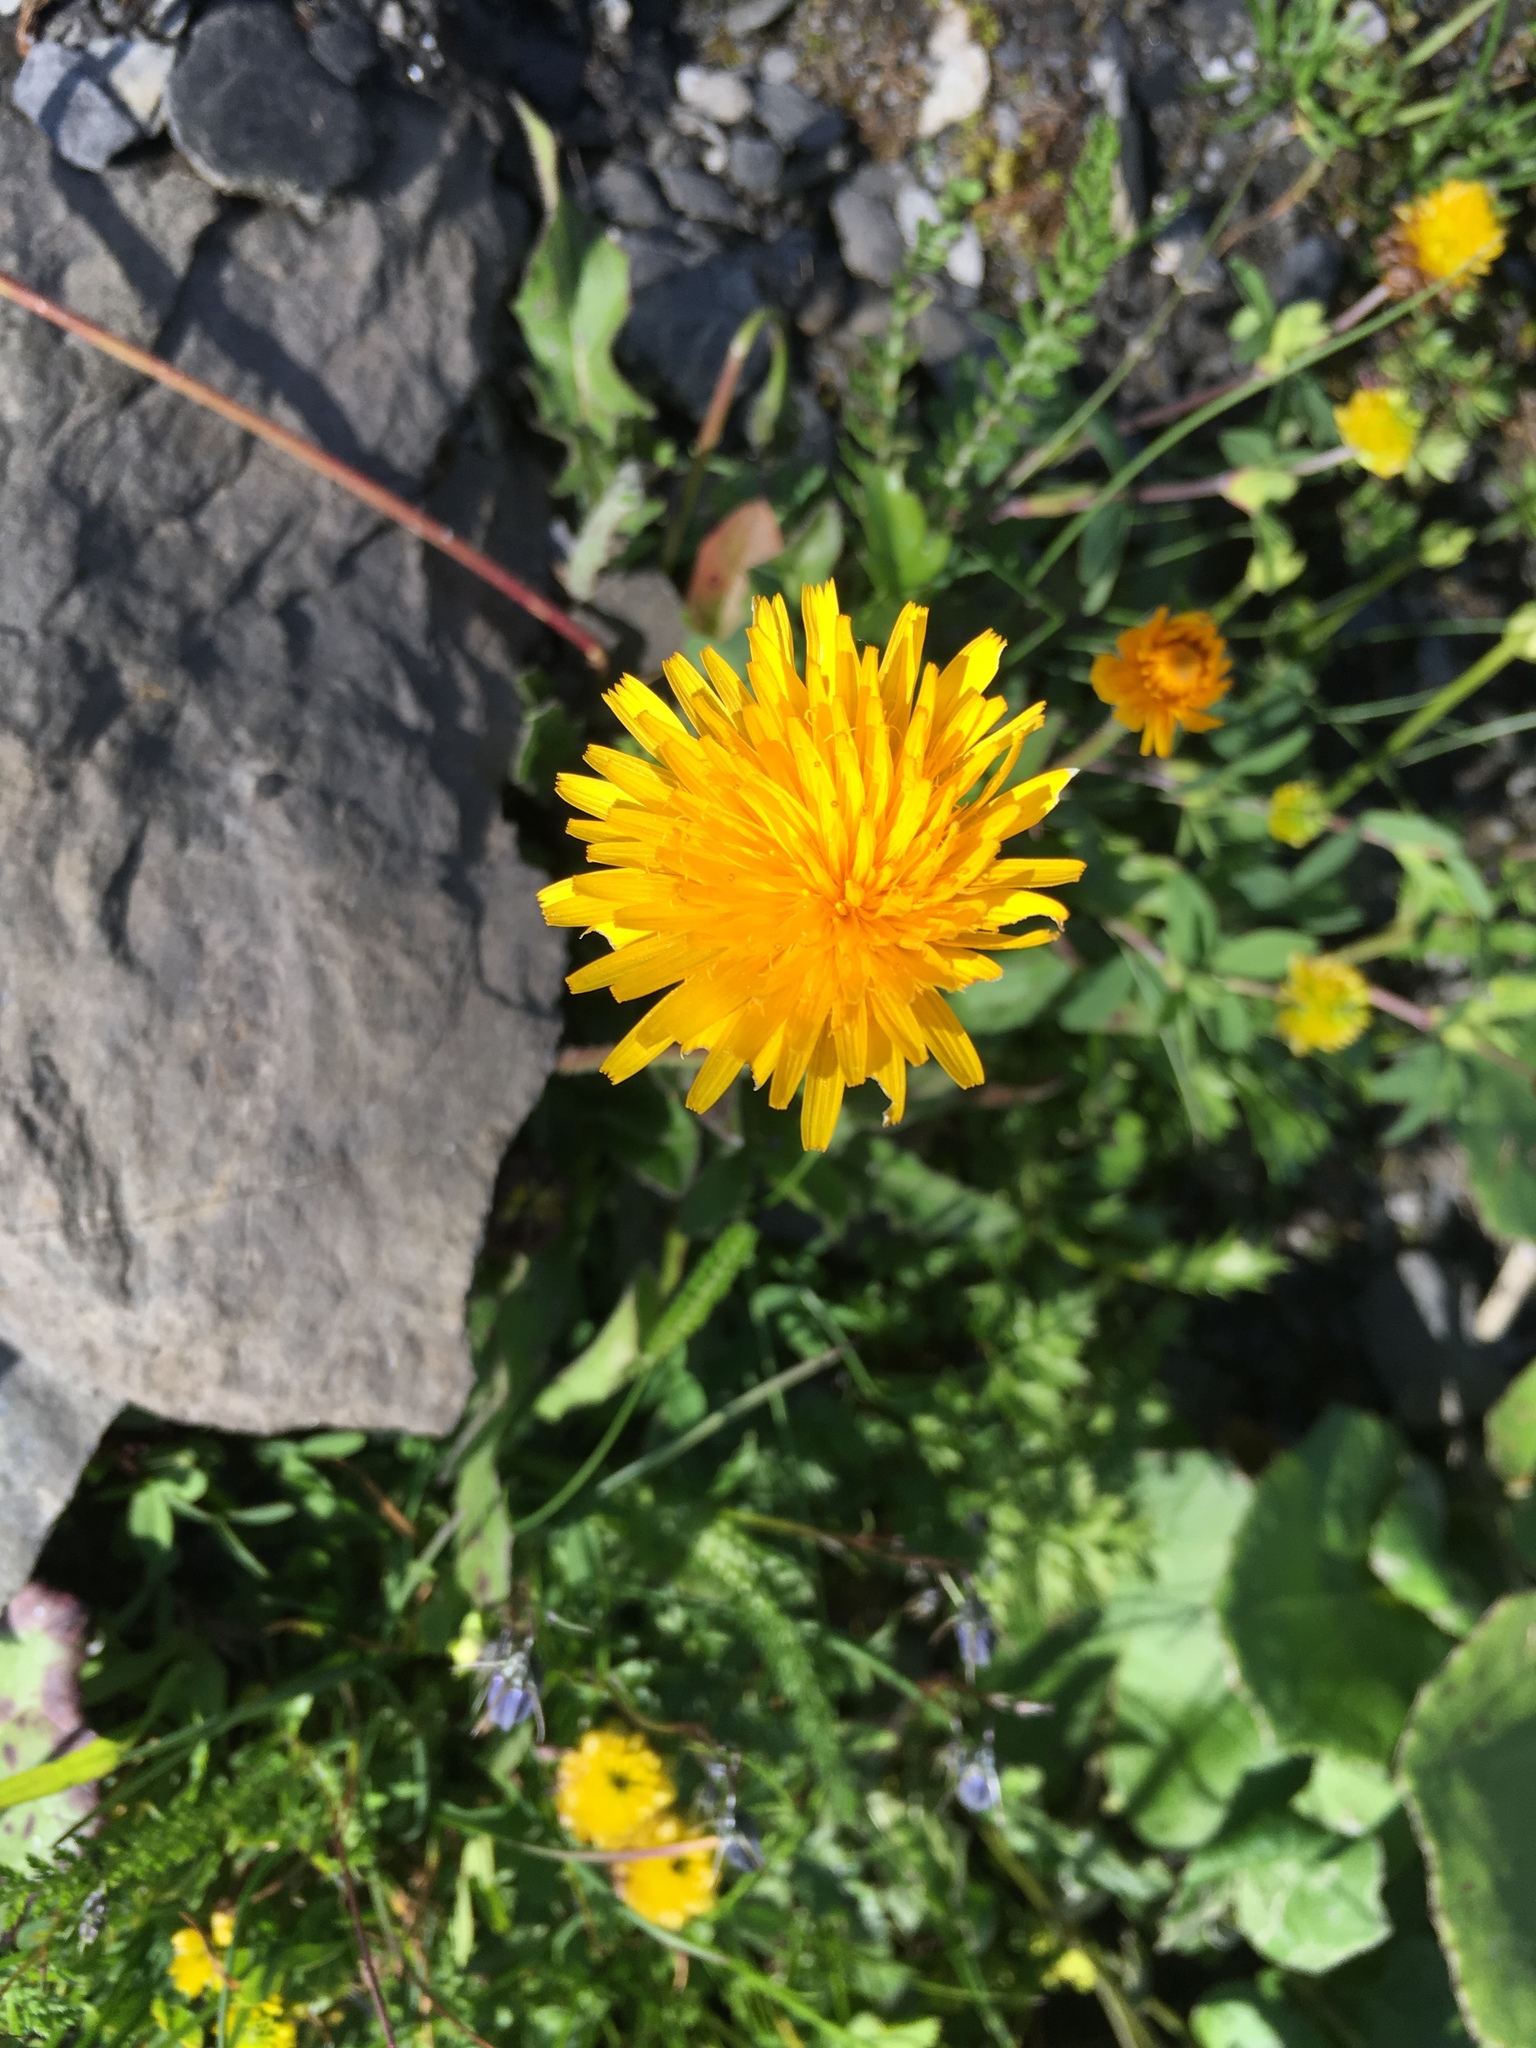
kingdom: Plantae
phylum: Tracheophyta
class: Magnoliopsida
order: Asterales
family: Asteraceae
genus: Taraxacum
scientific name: Taraxacum officinale
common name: Common dandelion
